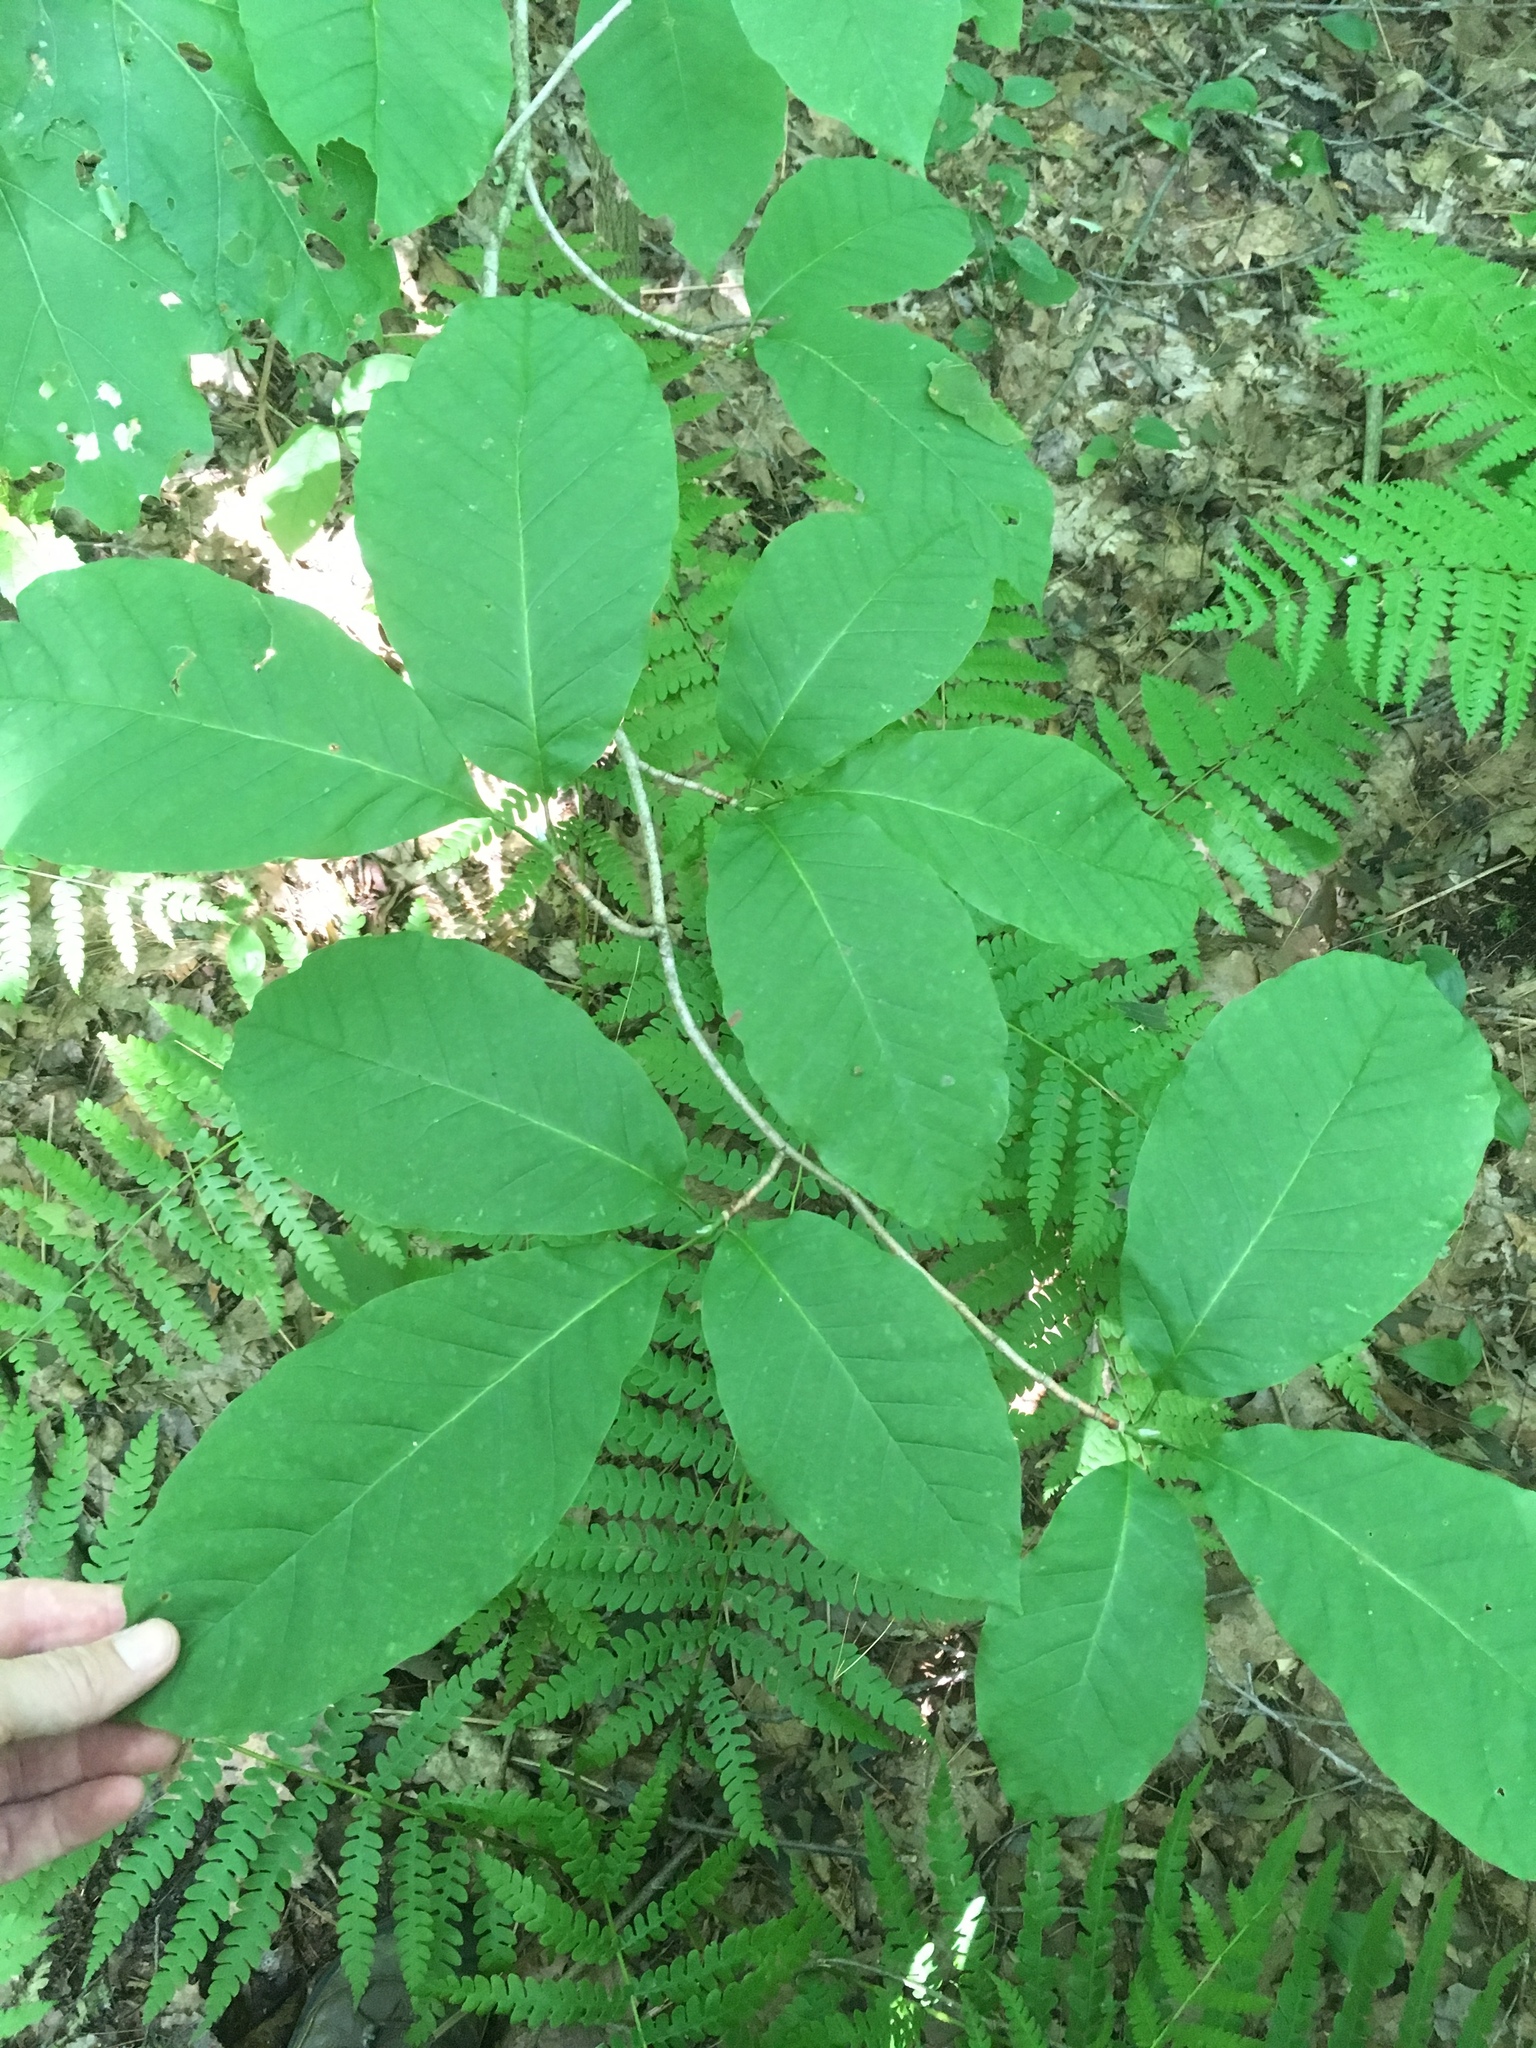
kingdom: Plantae
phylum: Tracheophyta
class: Magnoliopsida
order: Magnoliales
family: Magnoliaceae
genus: Magnolia
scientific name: Magnolia acuminata
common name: Cucumber magnolia
